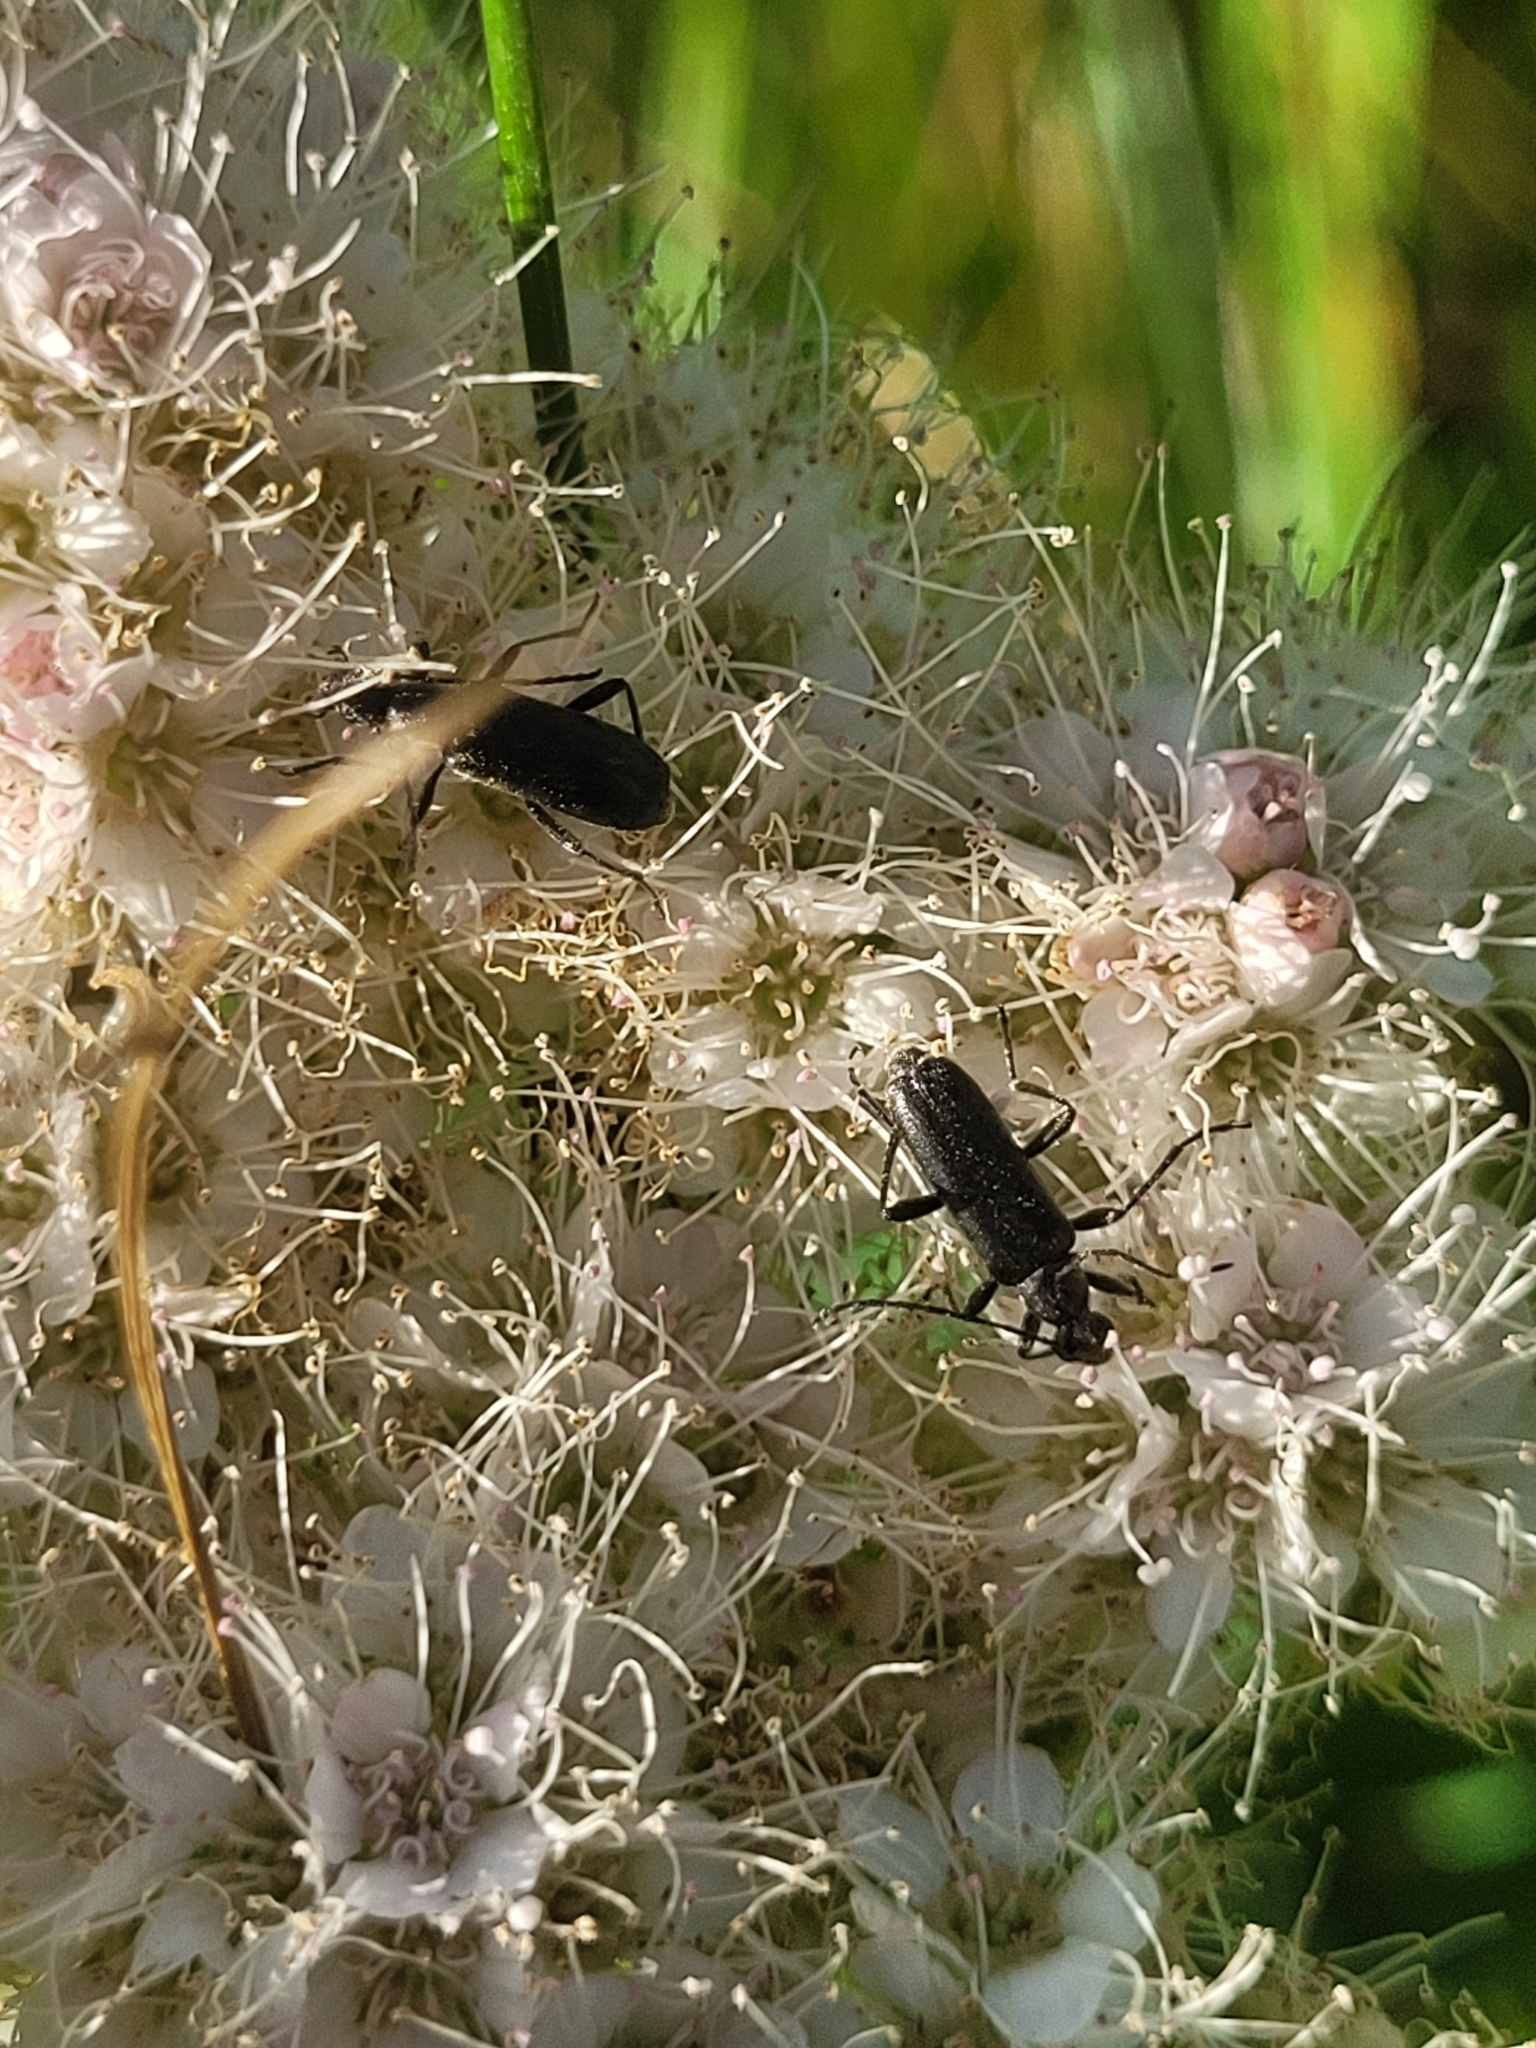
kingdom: Animalia
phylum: Arthropoda
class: Insecta
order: Coleoptera
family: Cerambycidae
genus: Grammoptera
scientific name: Grammoptera subargentata
